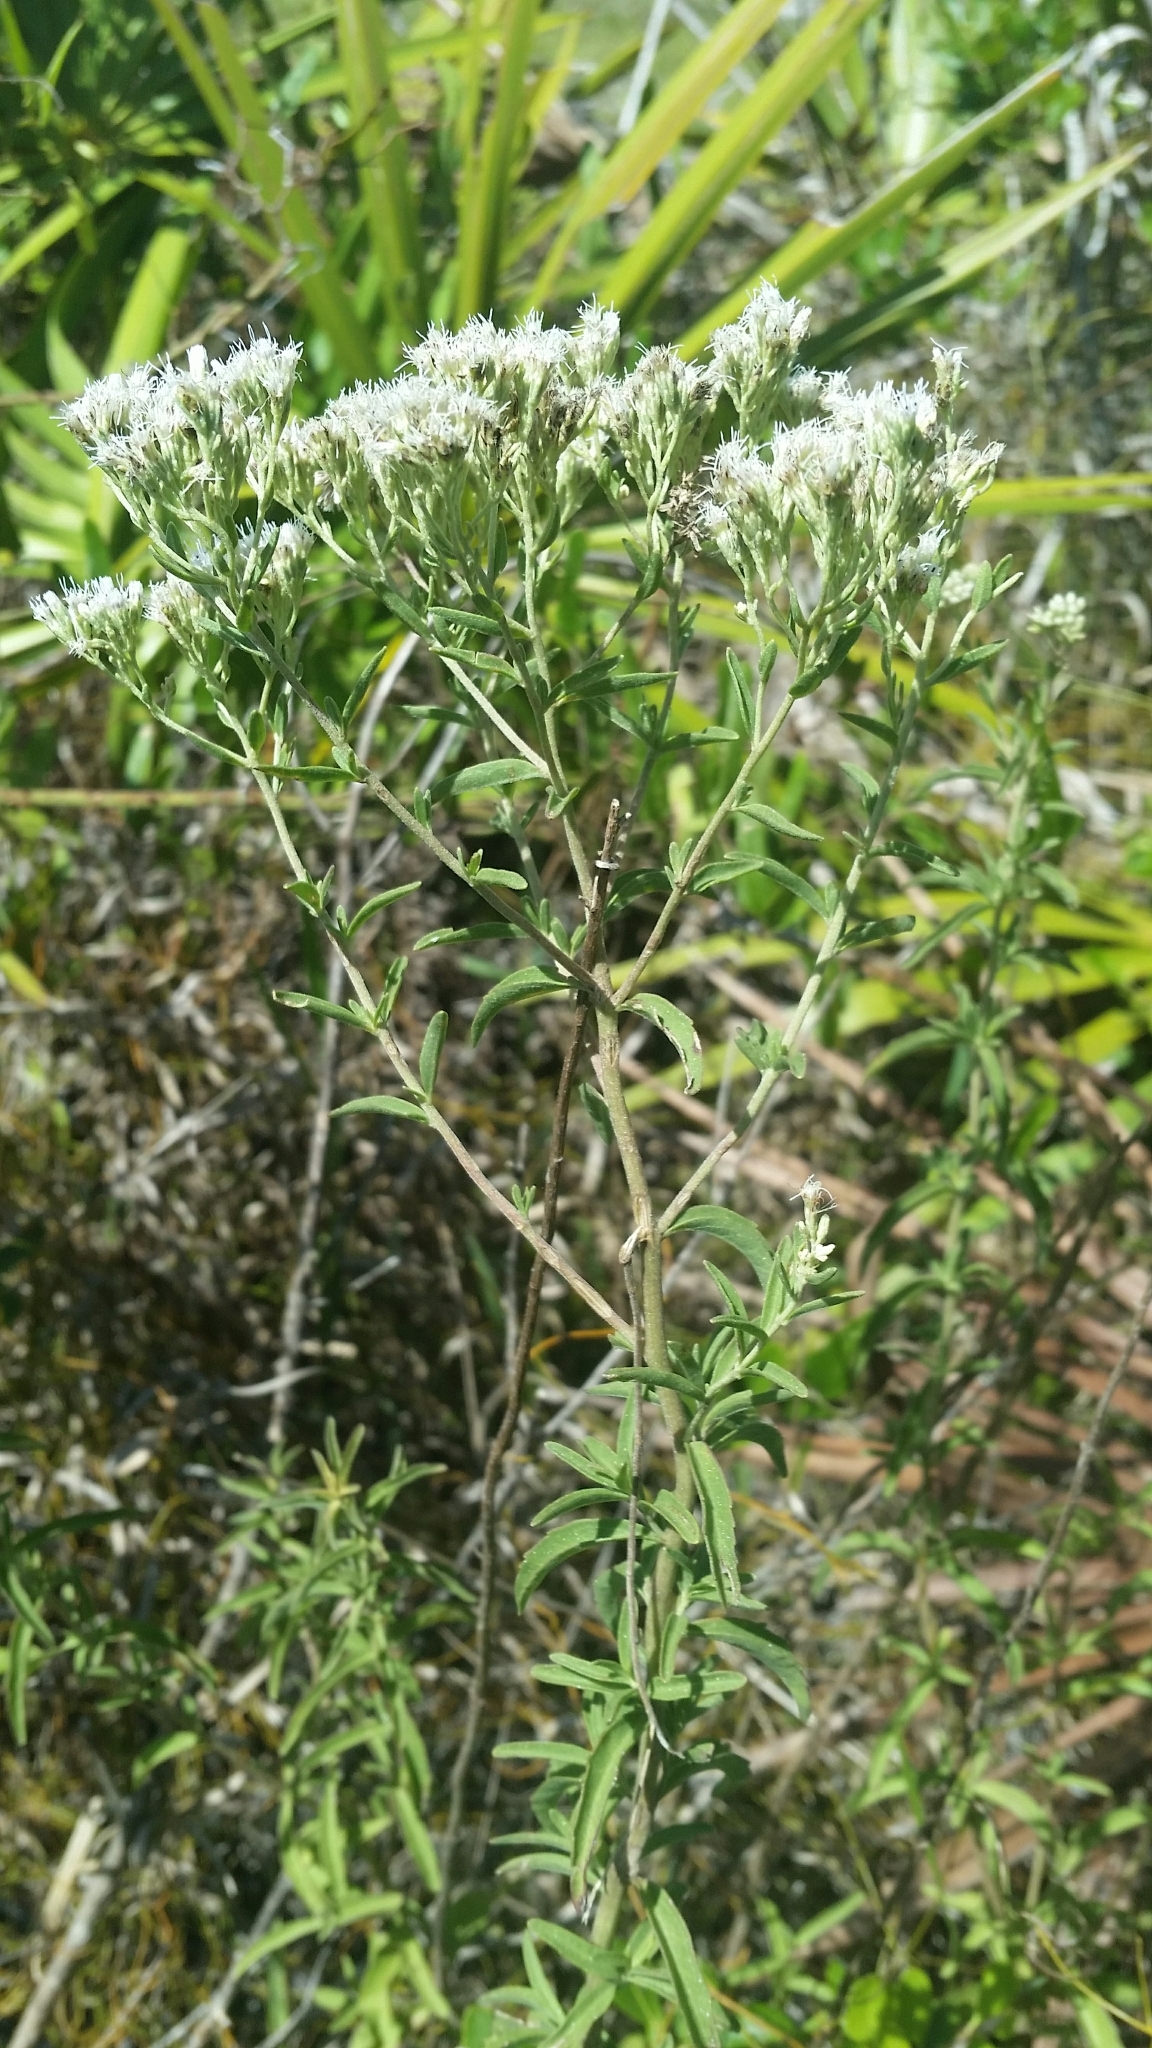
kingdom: Plantae
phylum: Tracheophyta
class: Magnoliopsida
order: Asterales
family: Asteraceae
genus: Eupatorium
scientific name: Eupatorium mohrii
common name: Mohr's thoroughwort
